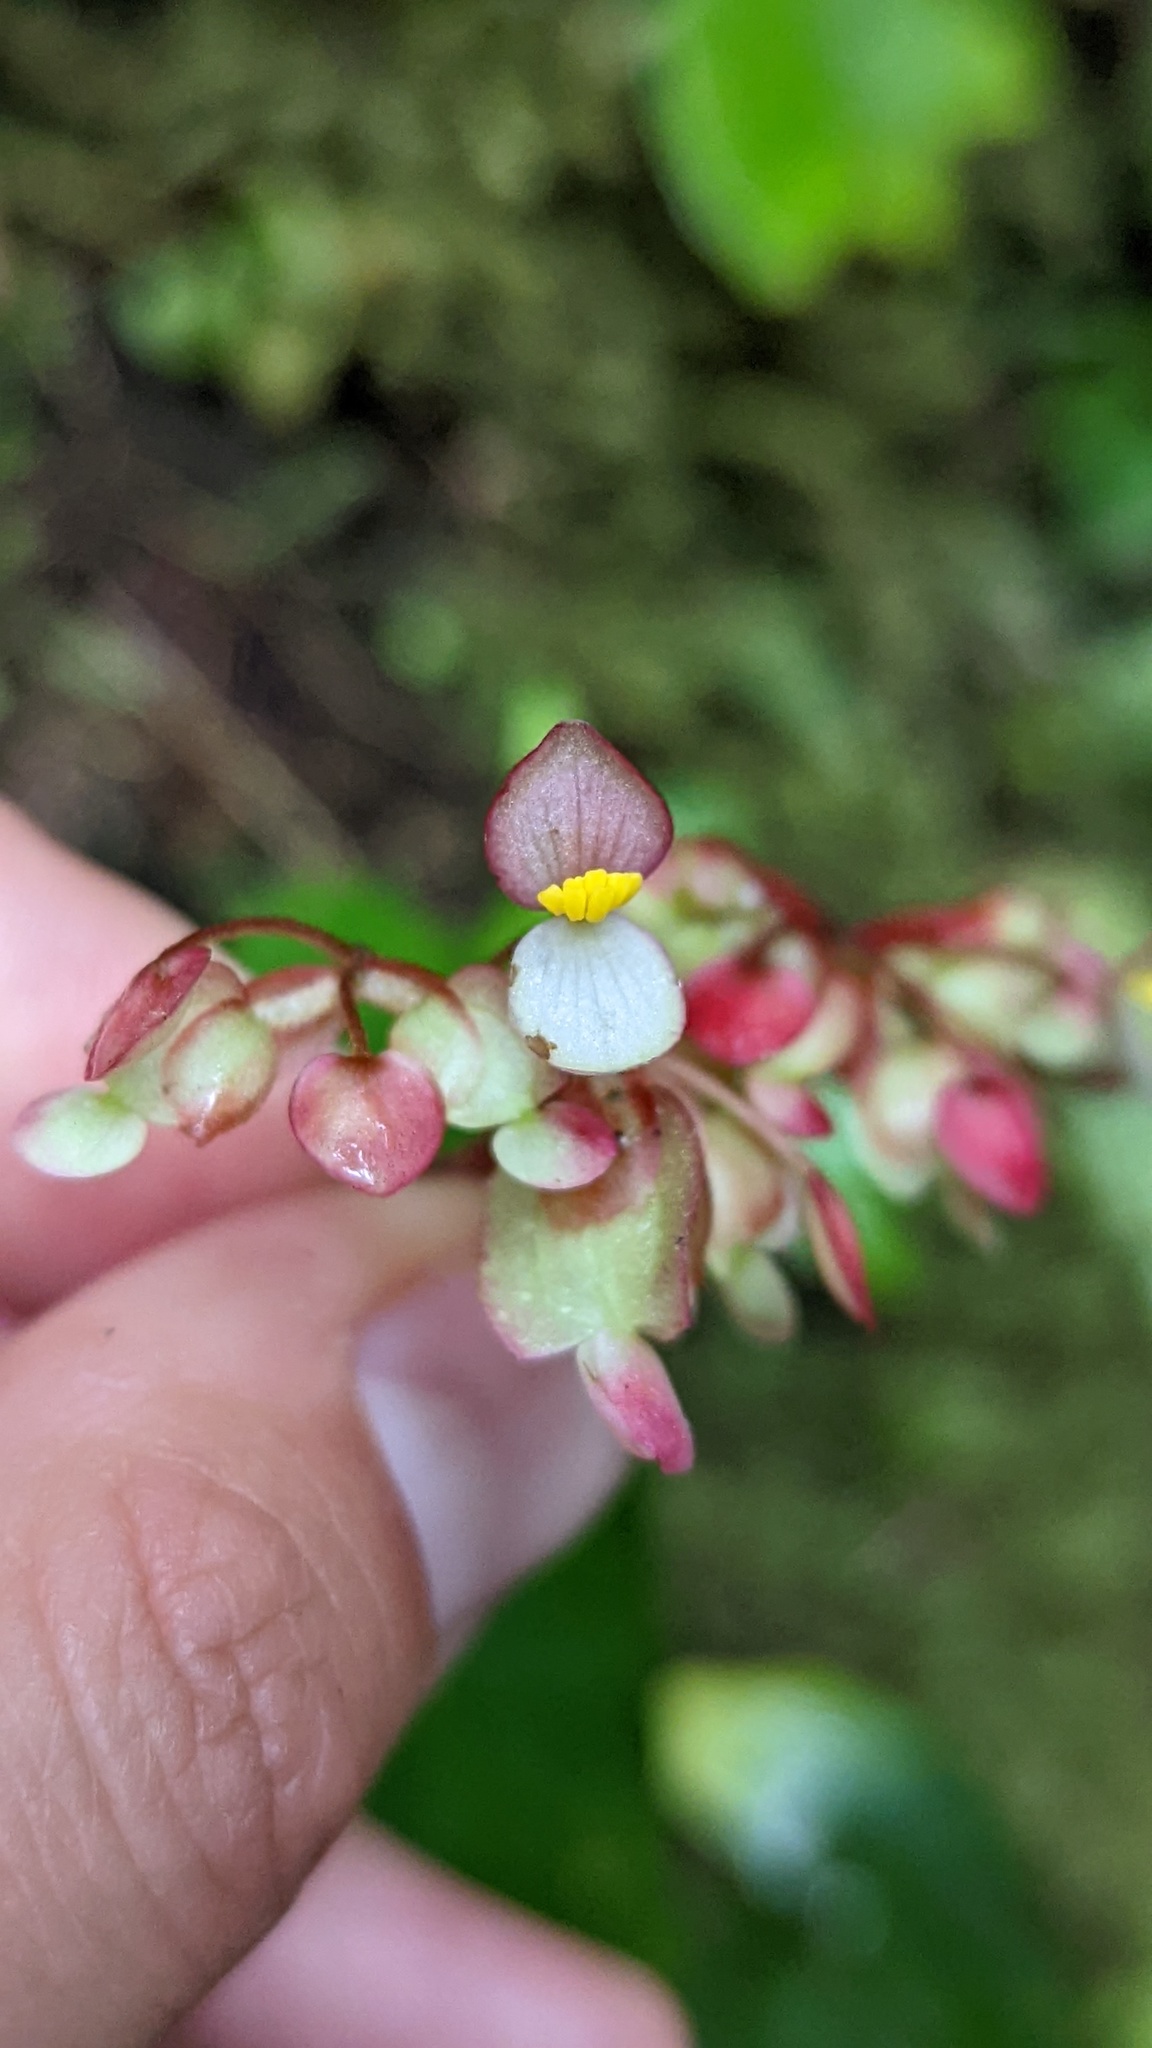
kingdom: Plantae
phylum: Tracheophyta
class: Magnoliopsida
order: Cucurbitales
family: Begoniaceae
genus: Begonia
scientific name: Begonia conchifolia
